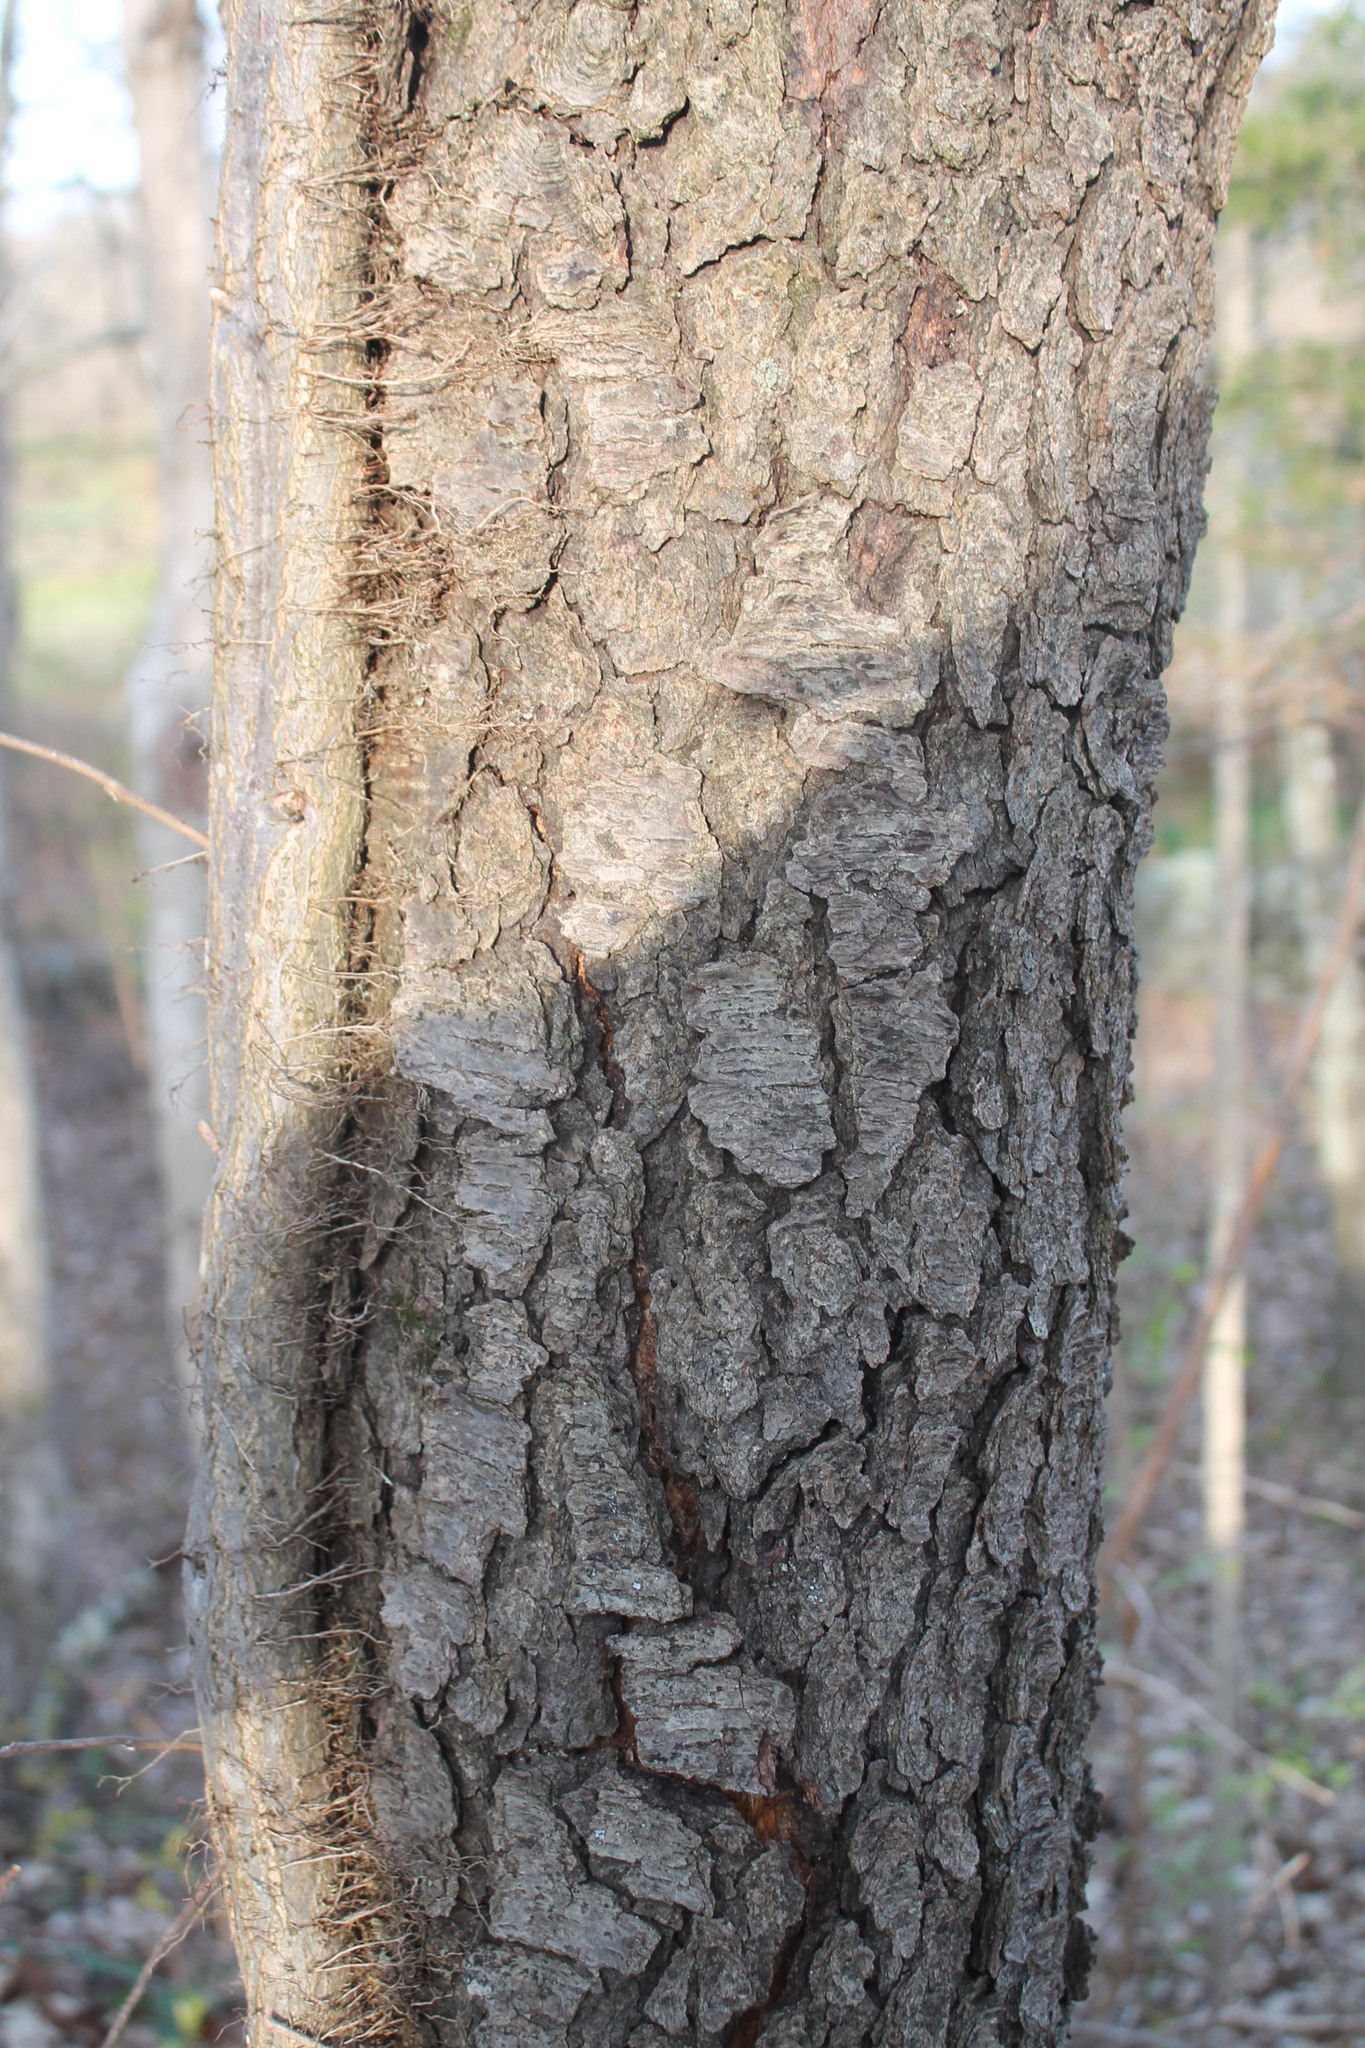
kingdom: Plantae
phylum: Tracheophyta
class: Magnoliopsida
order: Rosales
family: Rosaceae
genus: Prunus
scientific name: Prunus serotina
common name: Black cherry
